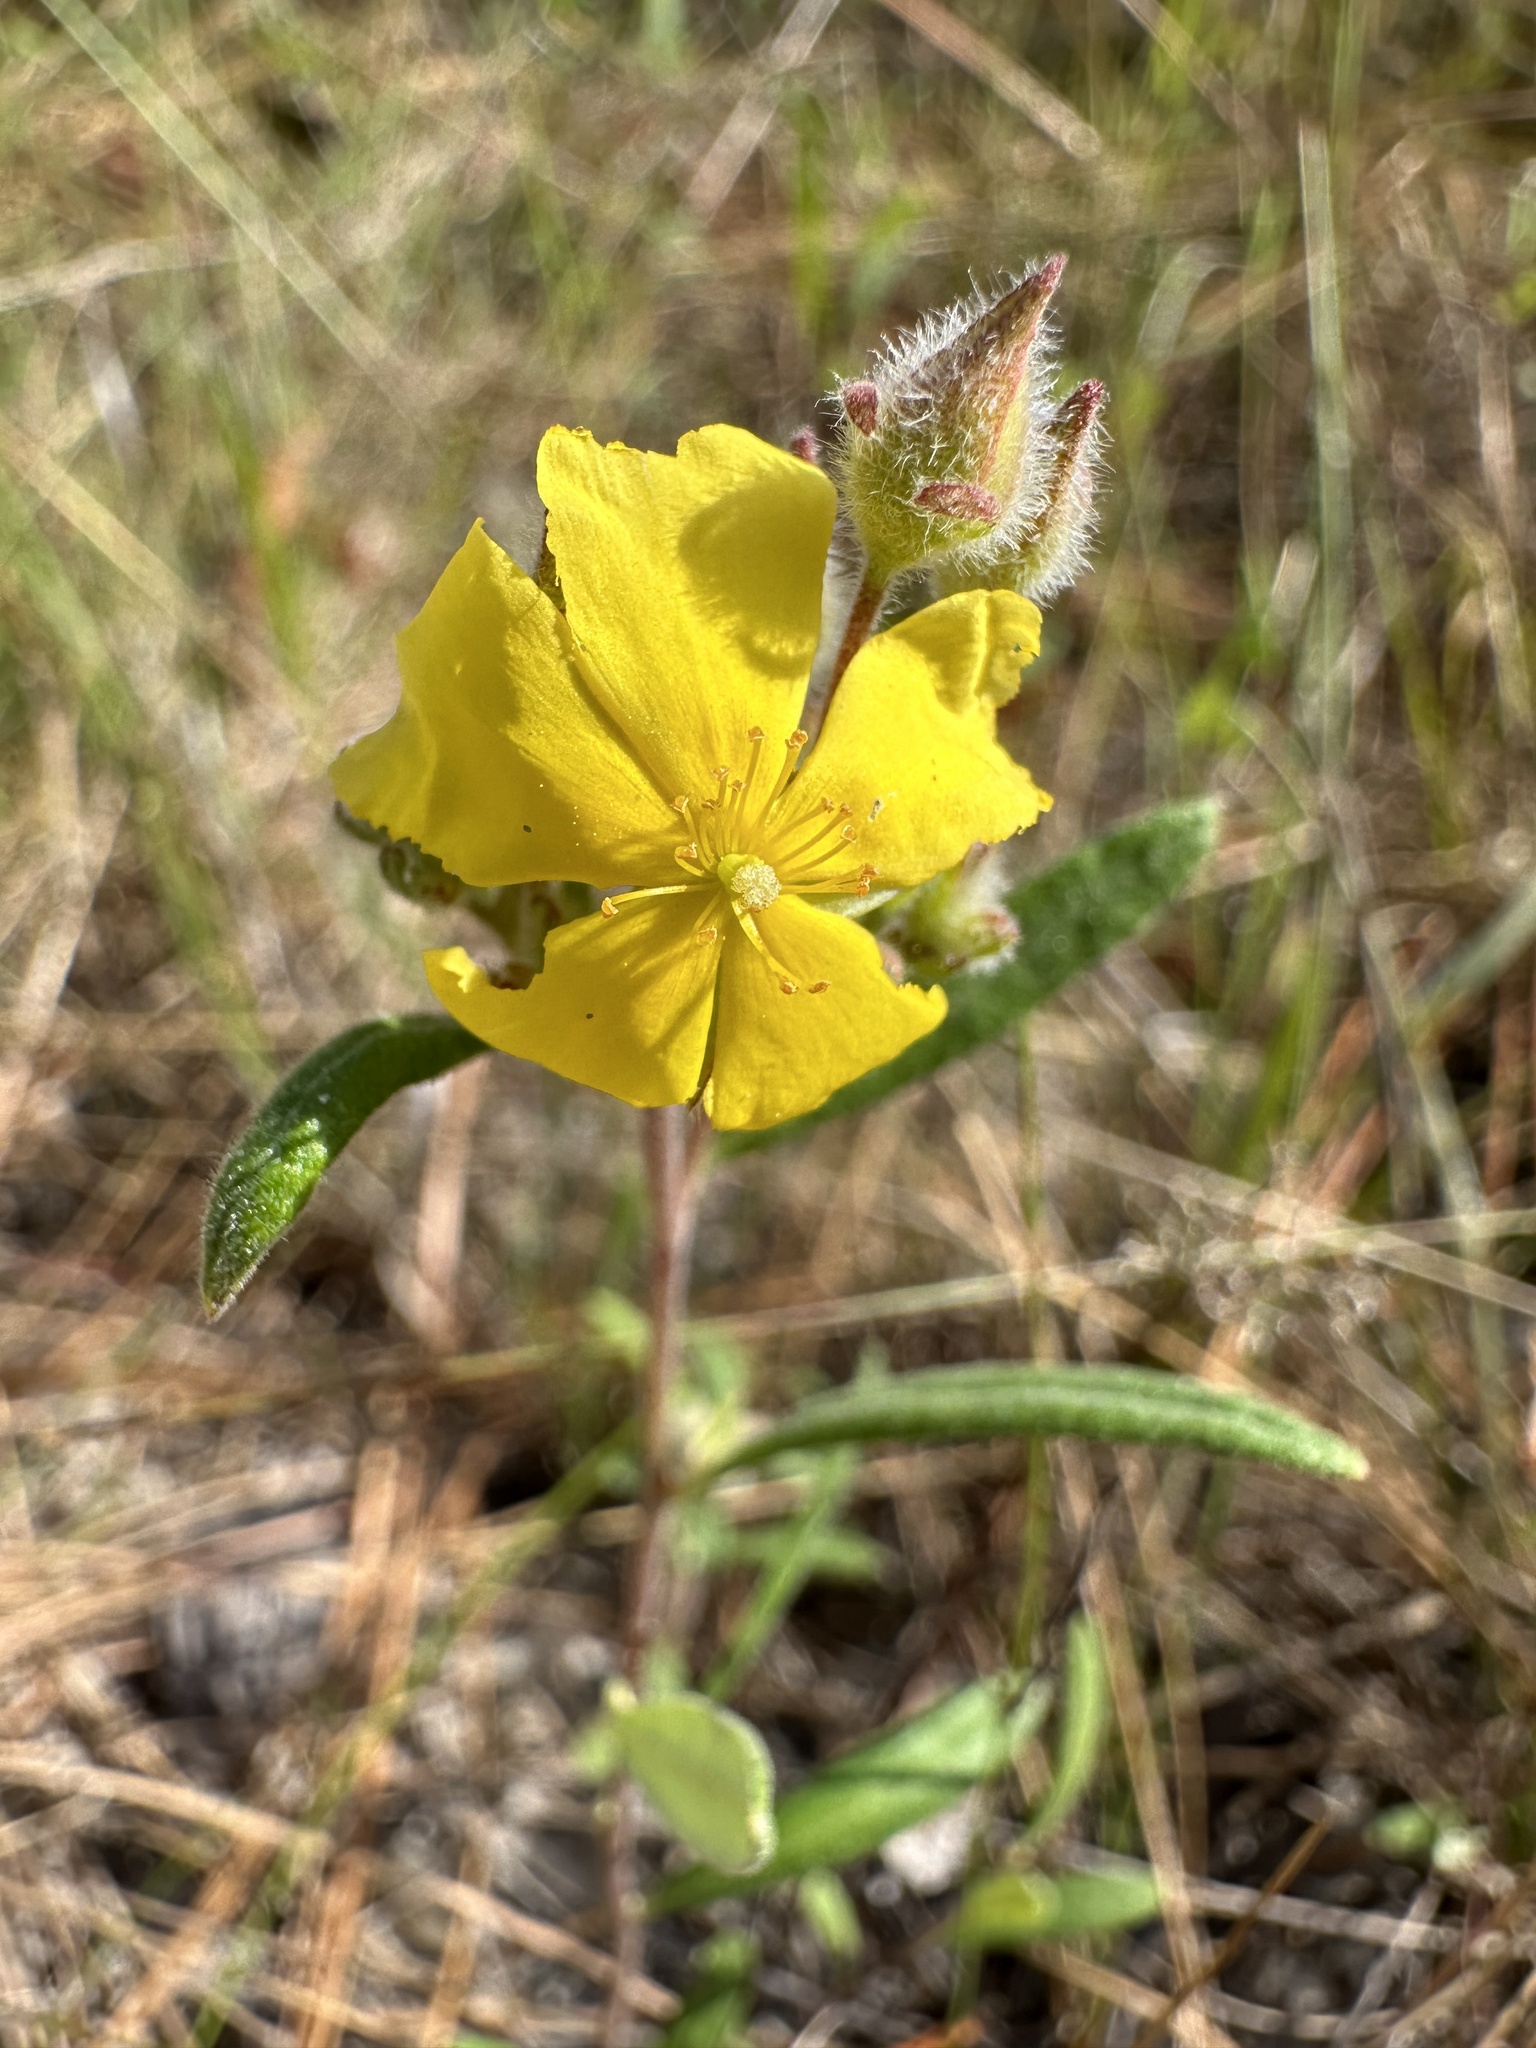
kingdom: Plantae
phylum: Tracheophyta
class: Magnoliopsida
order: Malvales
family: Cistaceae
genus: Crocanthemum
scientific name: Crocanthemum corymbosum
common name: Pinebarren sun-rose
